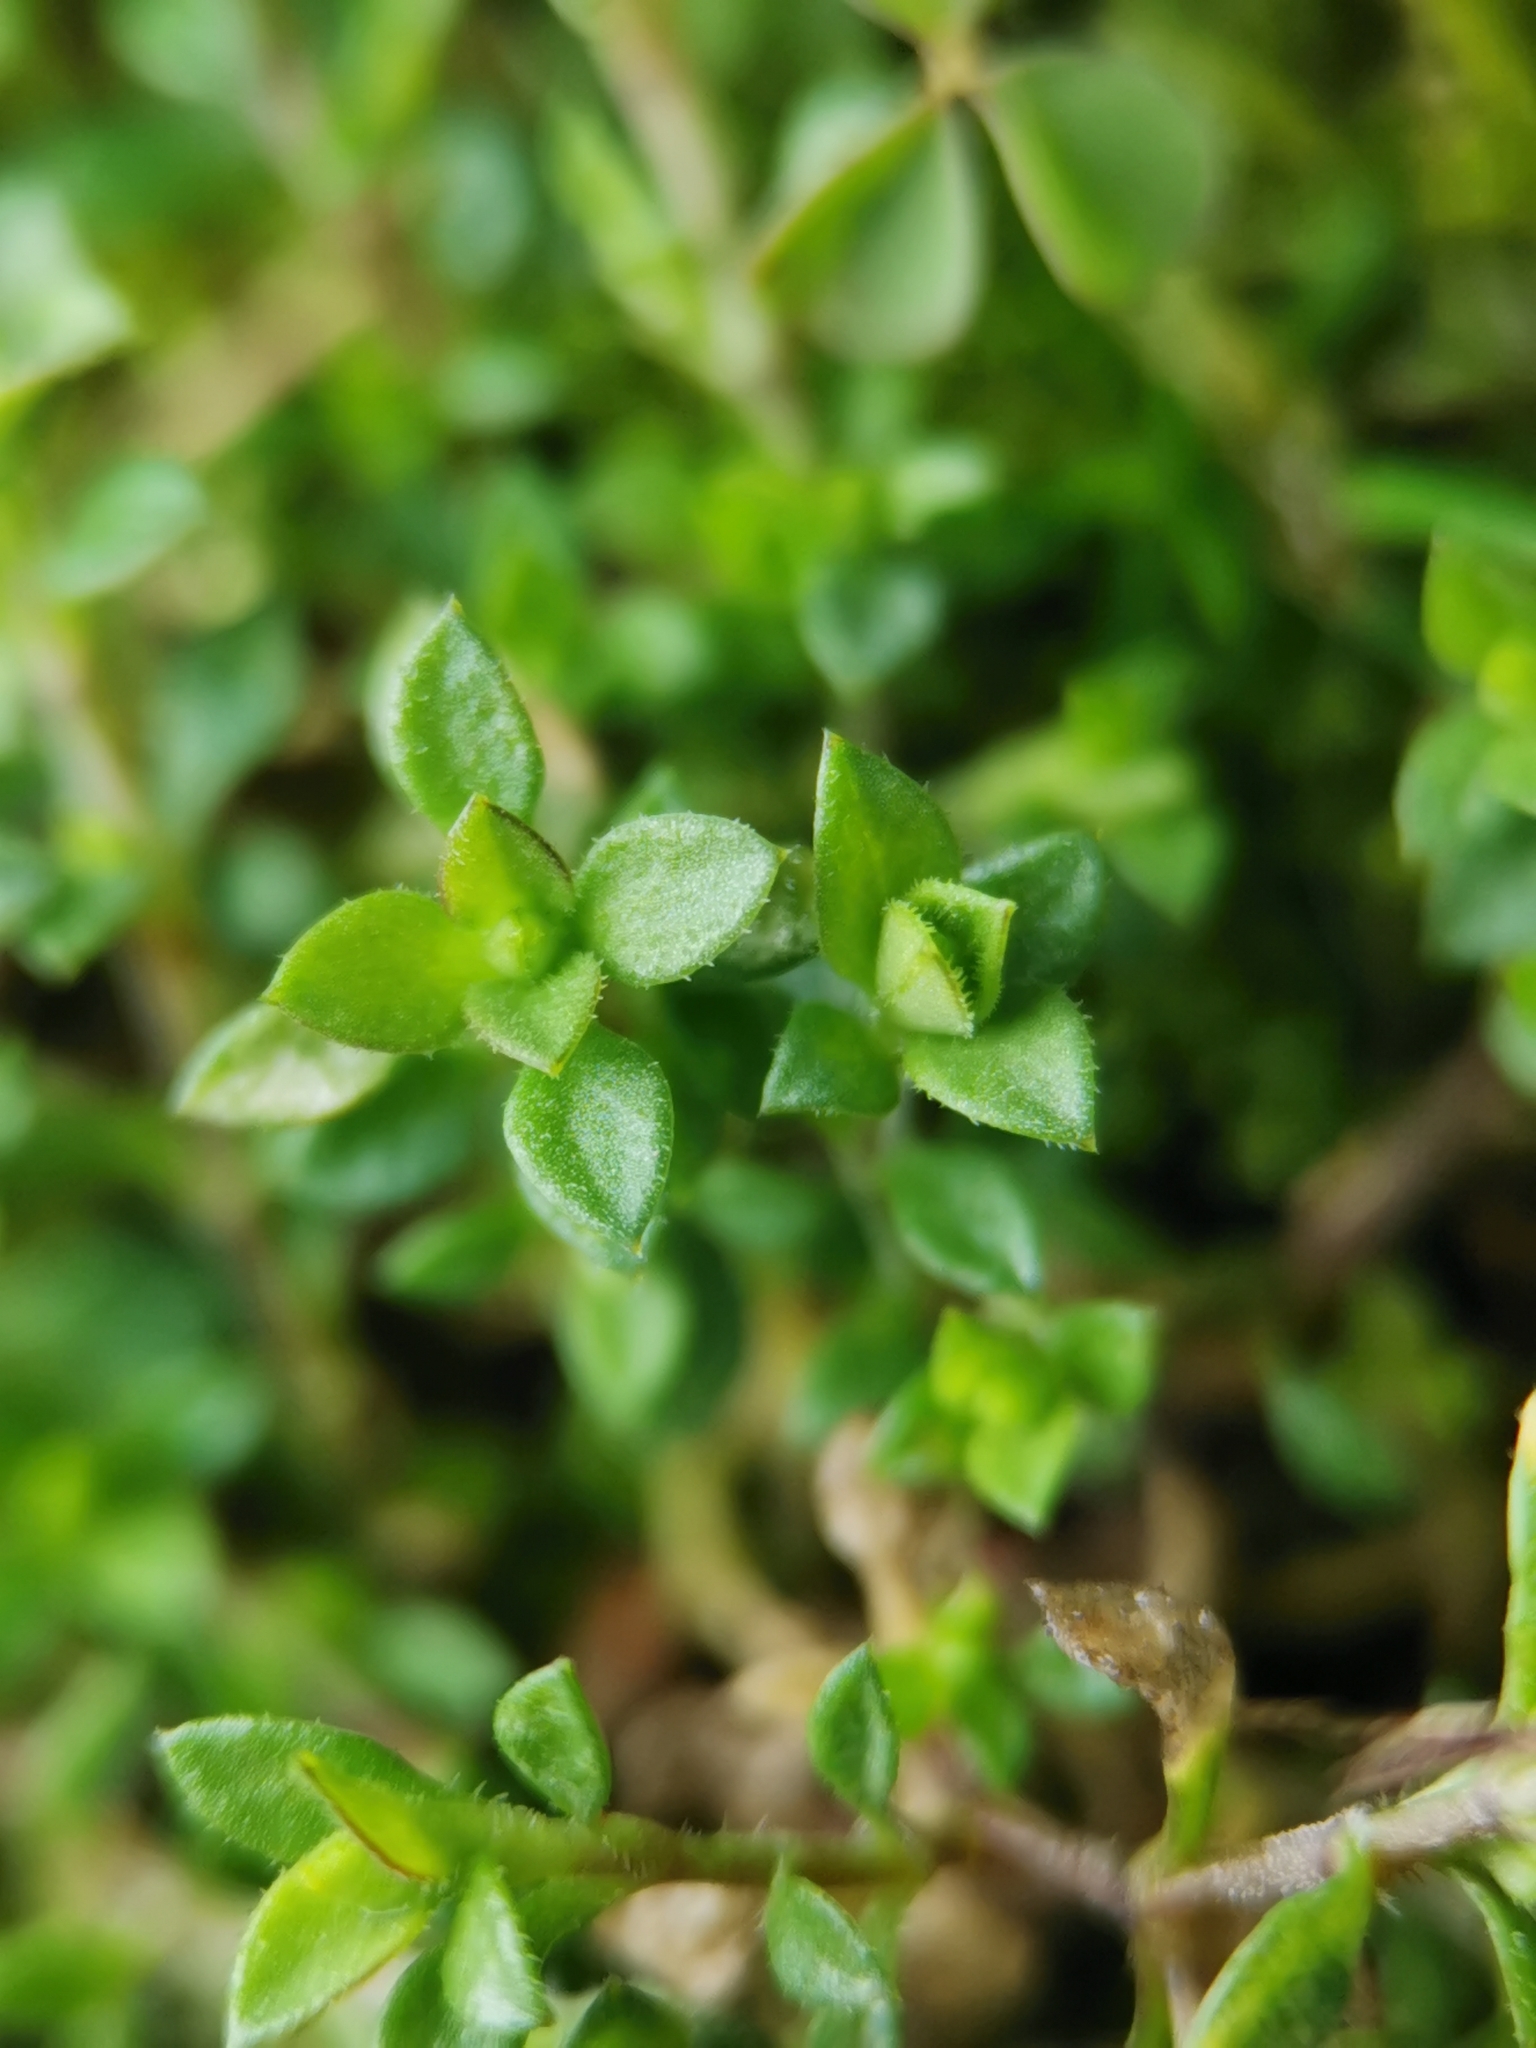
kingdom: Plantae
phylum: Tracheophyta
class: Magnoliopsida
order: Caryophyllales
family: Caryophyllaceae
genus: Arenaria
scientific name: Arenaria serpyllifolia
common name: Thyme-leaved sandwort
